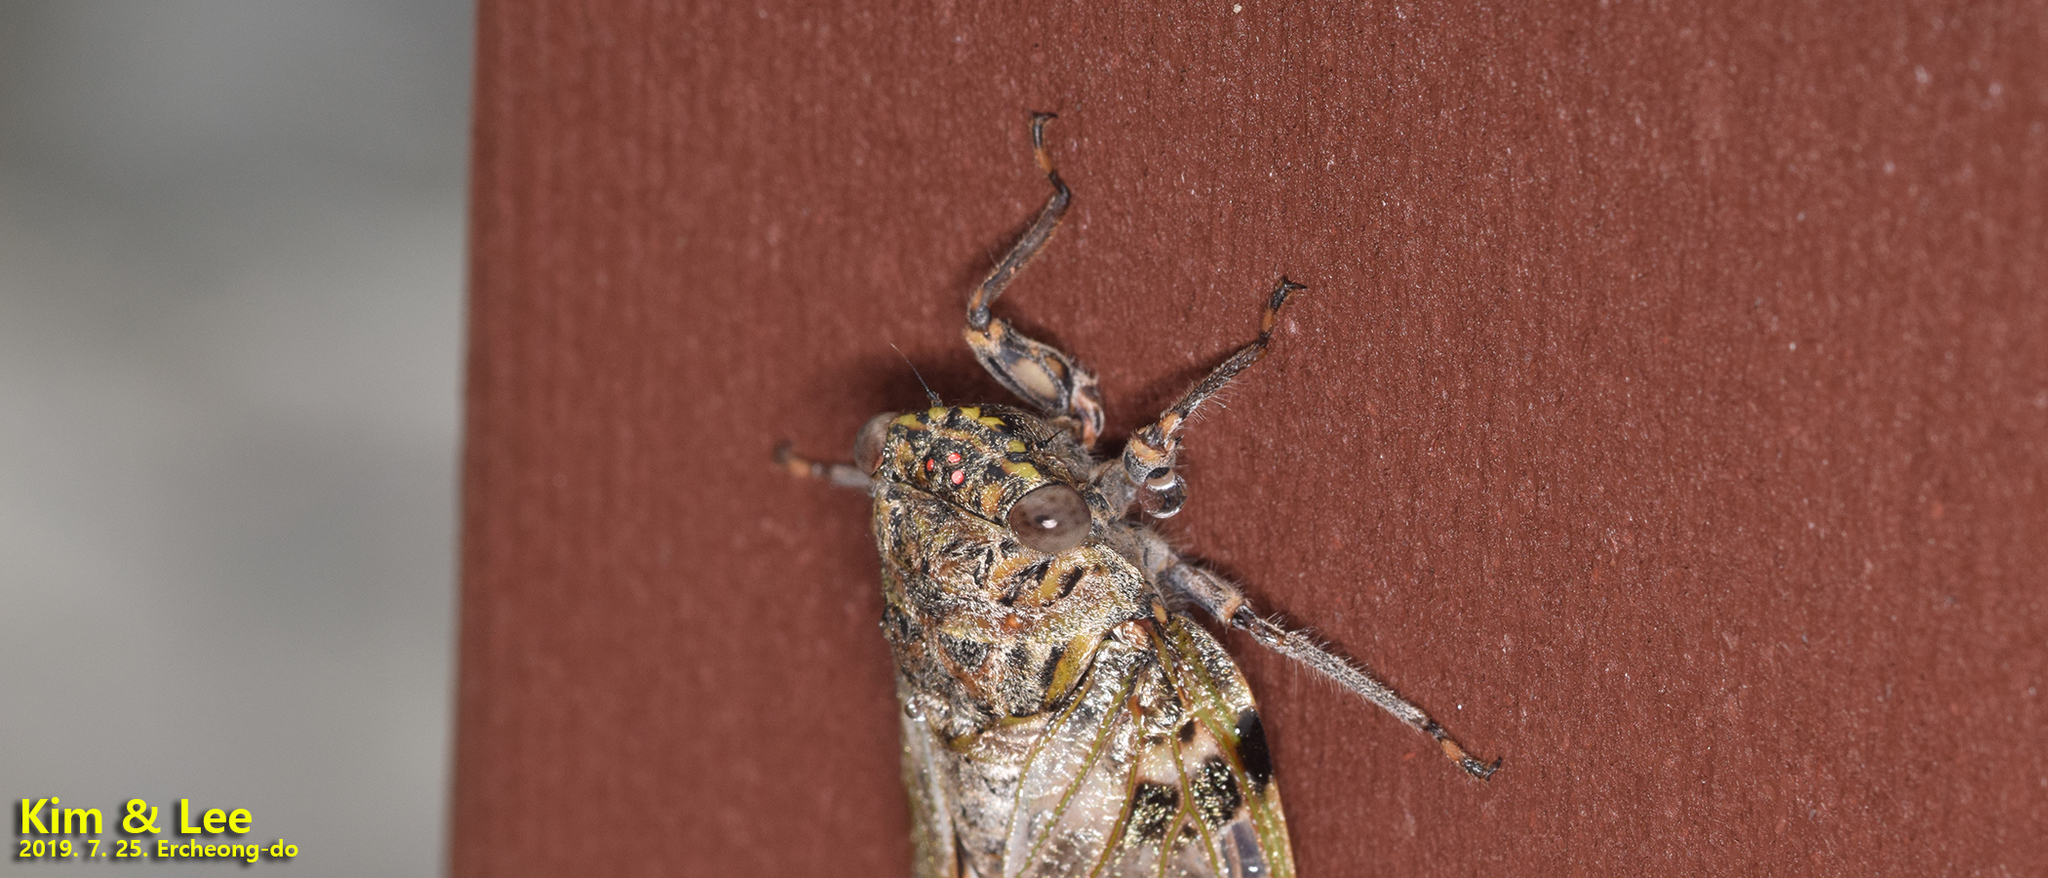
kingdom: Animalia
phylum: Arthropoda
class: Insecta
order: Hemiptera
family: Cicadidae
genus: Platypleura
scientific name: Platypleura kaempferi
